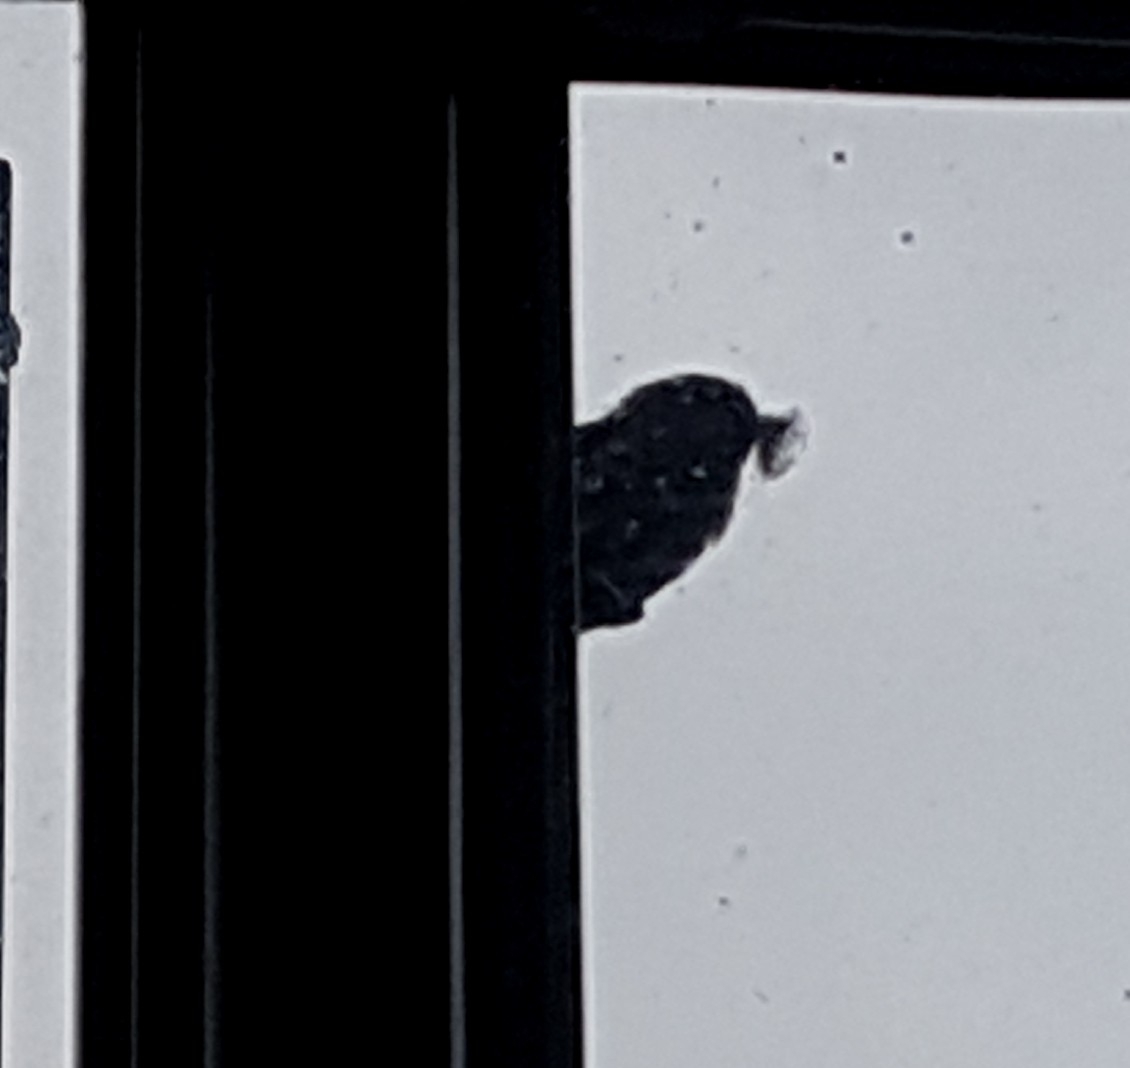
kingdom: Animalia
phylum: Chordata
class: Aves
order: Passeriformes
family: Aegithalidae
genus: Psaltriparus
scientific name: Psaltriparus minimus
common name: American bushtit
